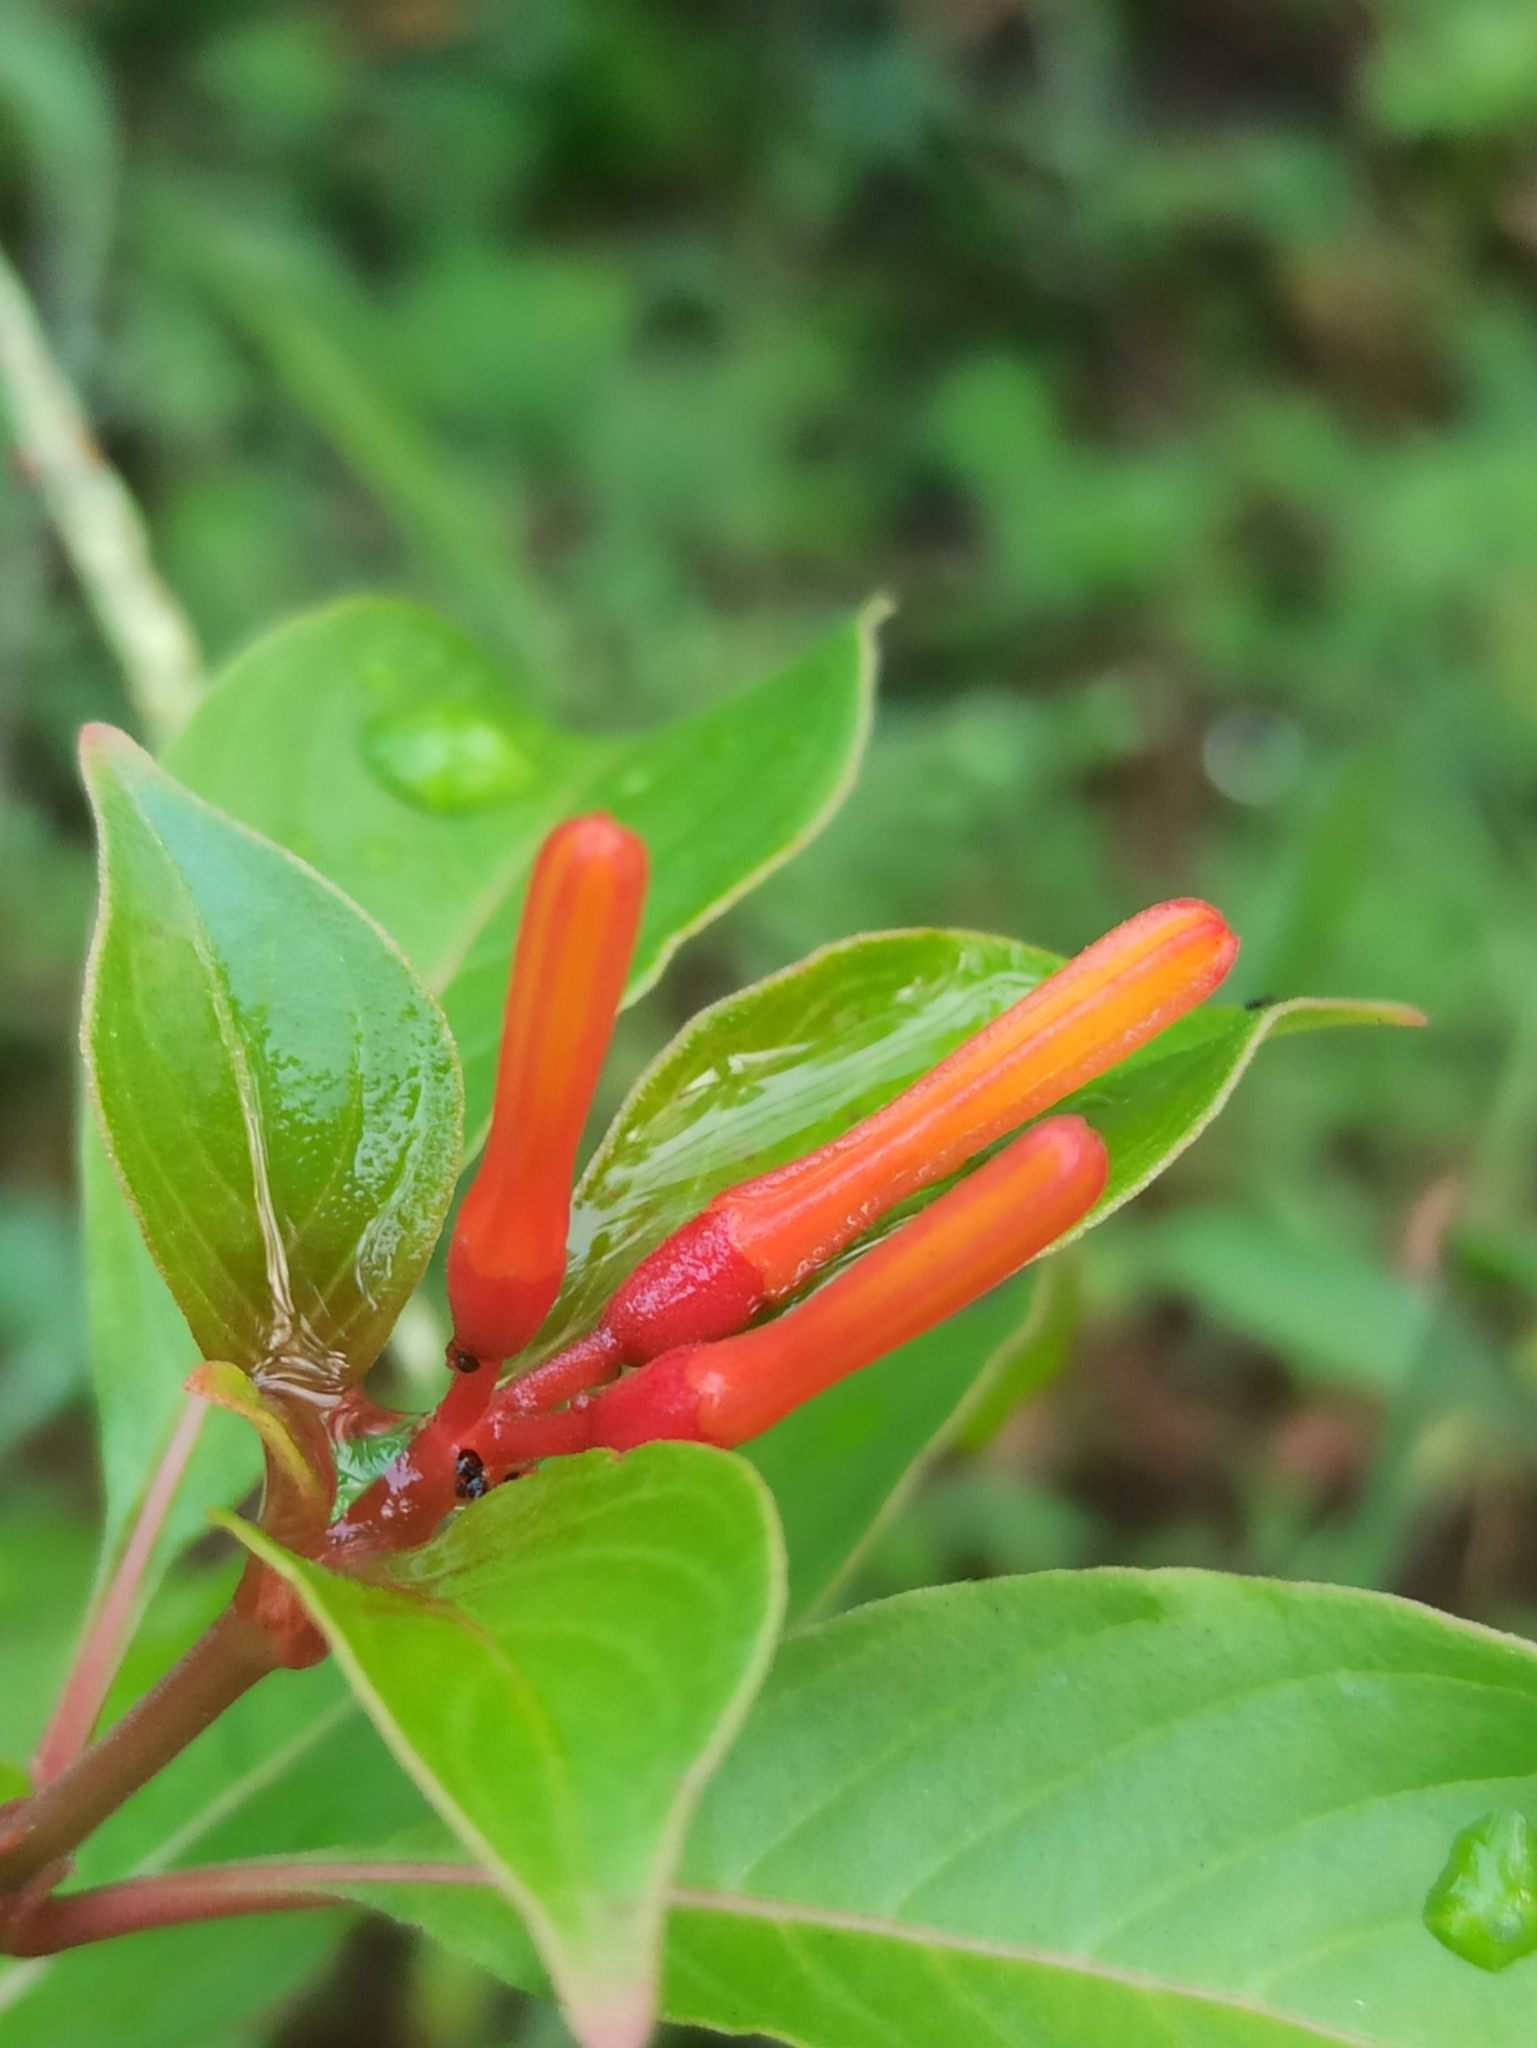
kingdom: Plantae
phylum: Tracheophyta
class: Magnoliopsida
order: Gentianales
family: Rubiaceae
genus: Hamelia
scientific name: Hamelia patens
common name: Redhead
